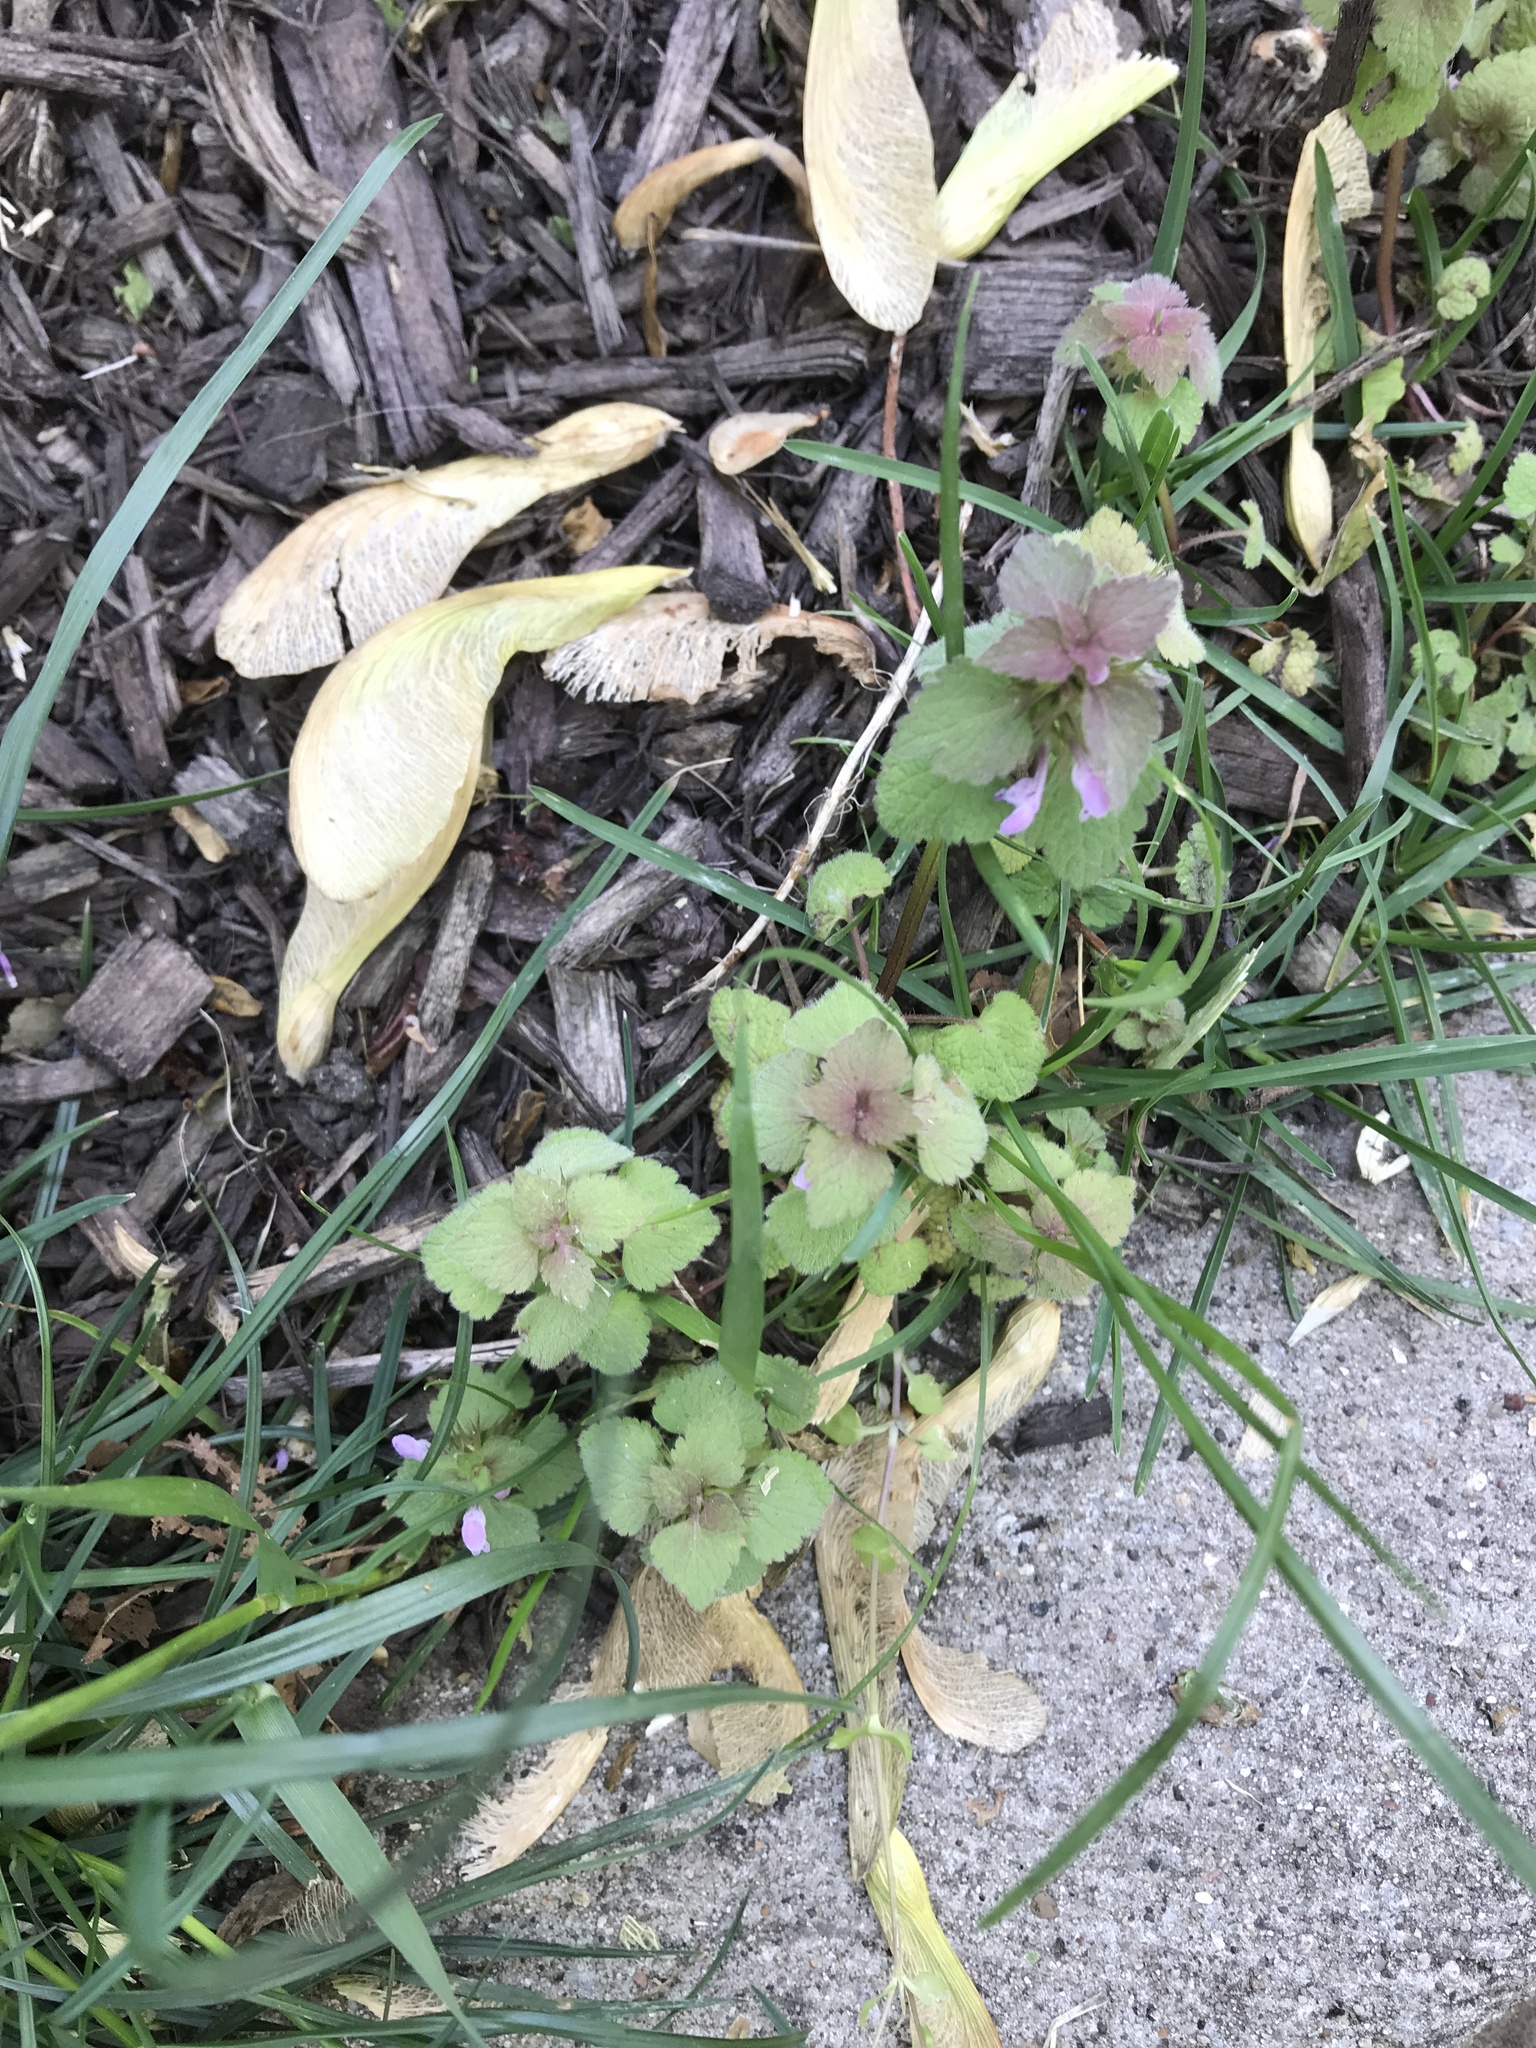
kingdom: Plantae
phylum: Tracheophyta
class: Magnoliopsida
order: Lamiales
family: Lamiaceae
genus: Lamium
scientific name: Lamium purpureum
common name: Red dead-nettle
